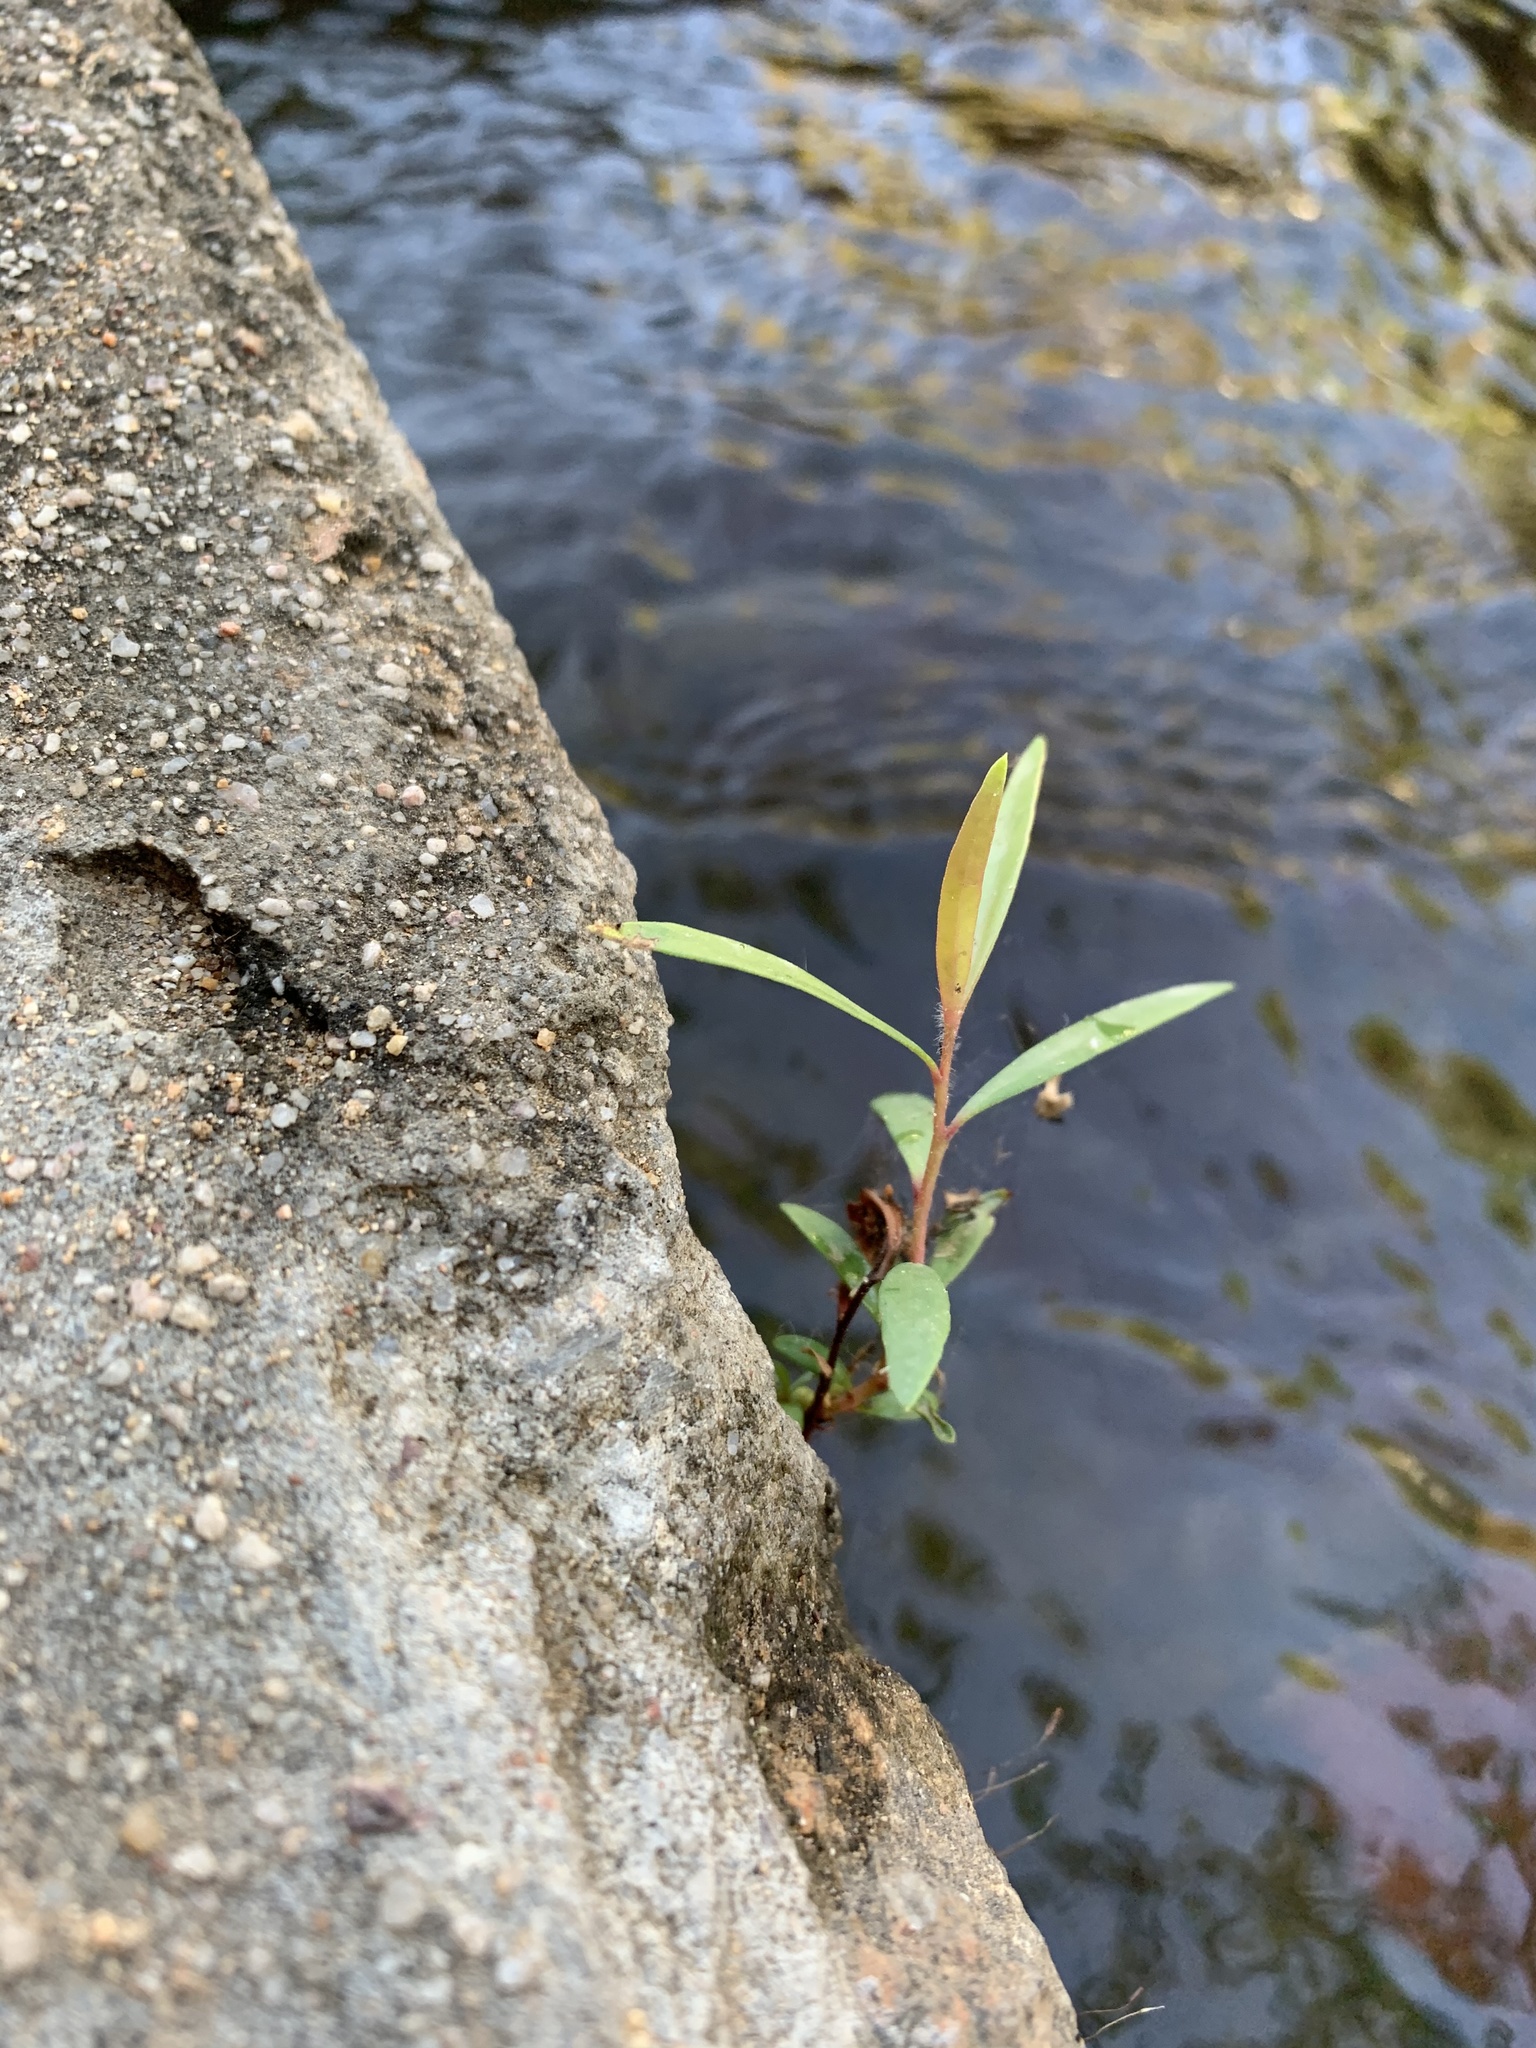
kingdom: Plantae
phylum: Tracheophyta
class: Magnoliopsida
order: Myrtales
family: Myrtaceae
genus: Callistemon
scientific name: Callistemon viminalis
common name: Drooping bottlebrush
